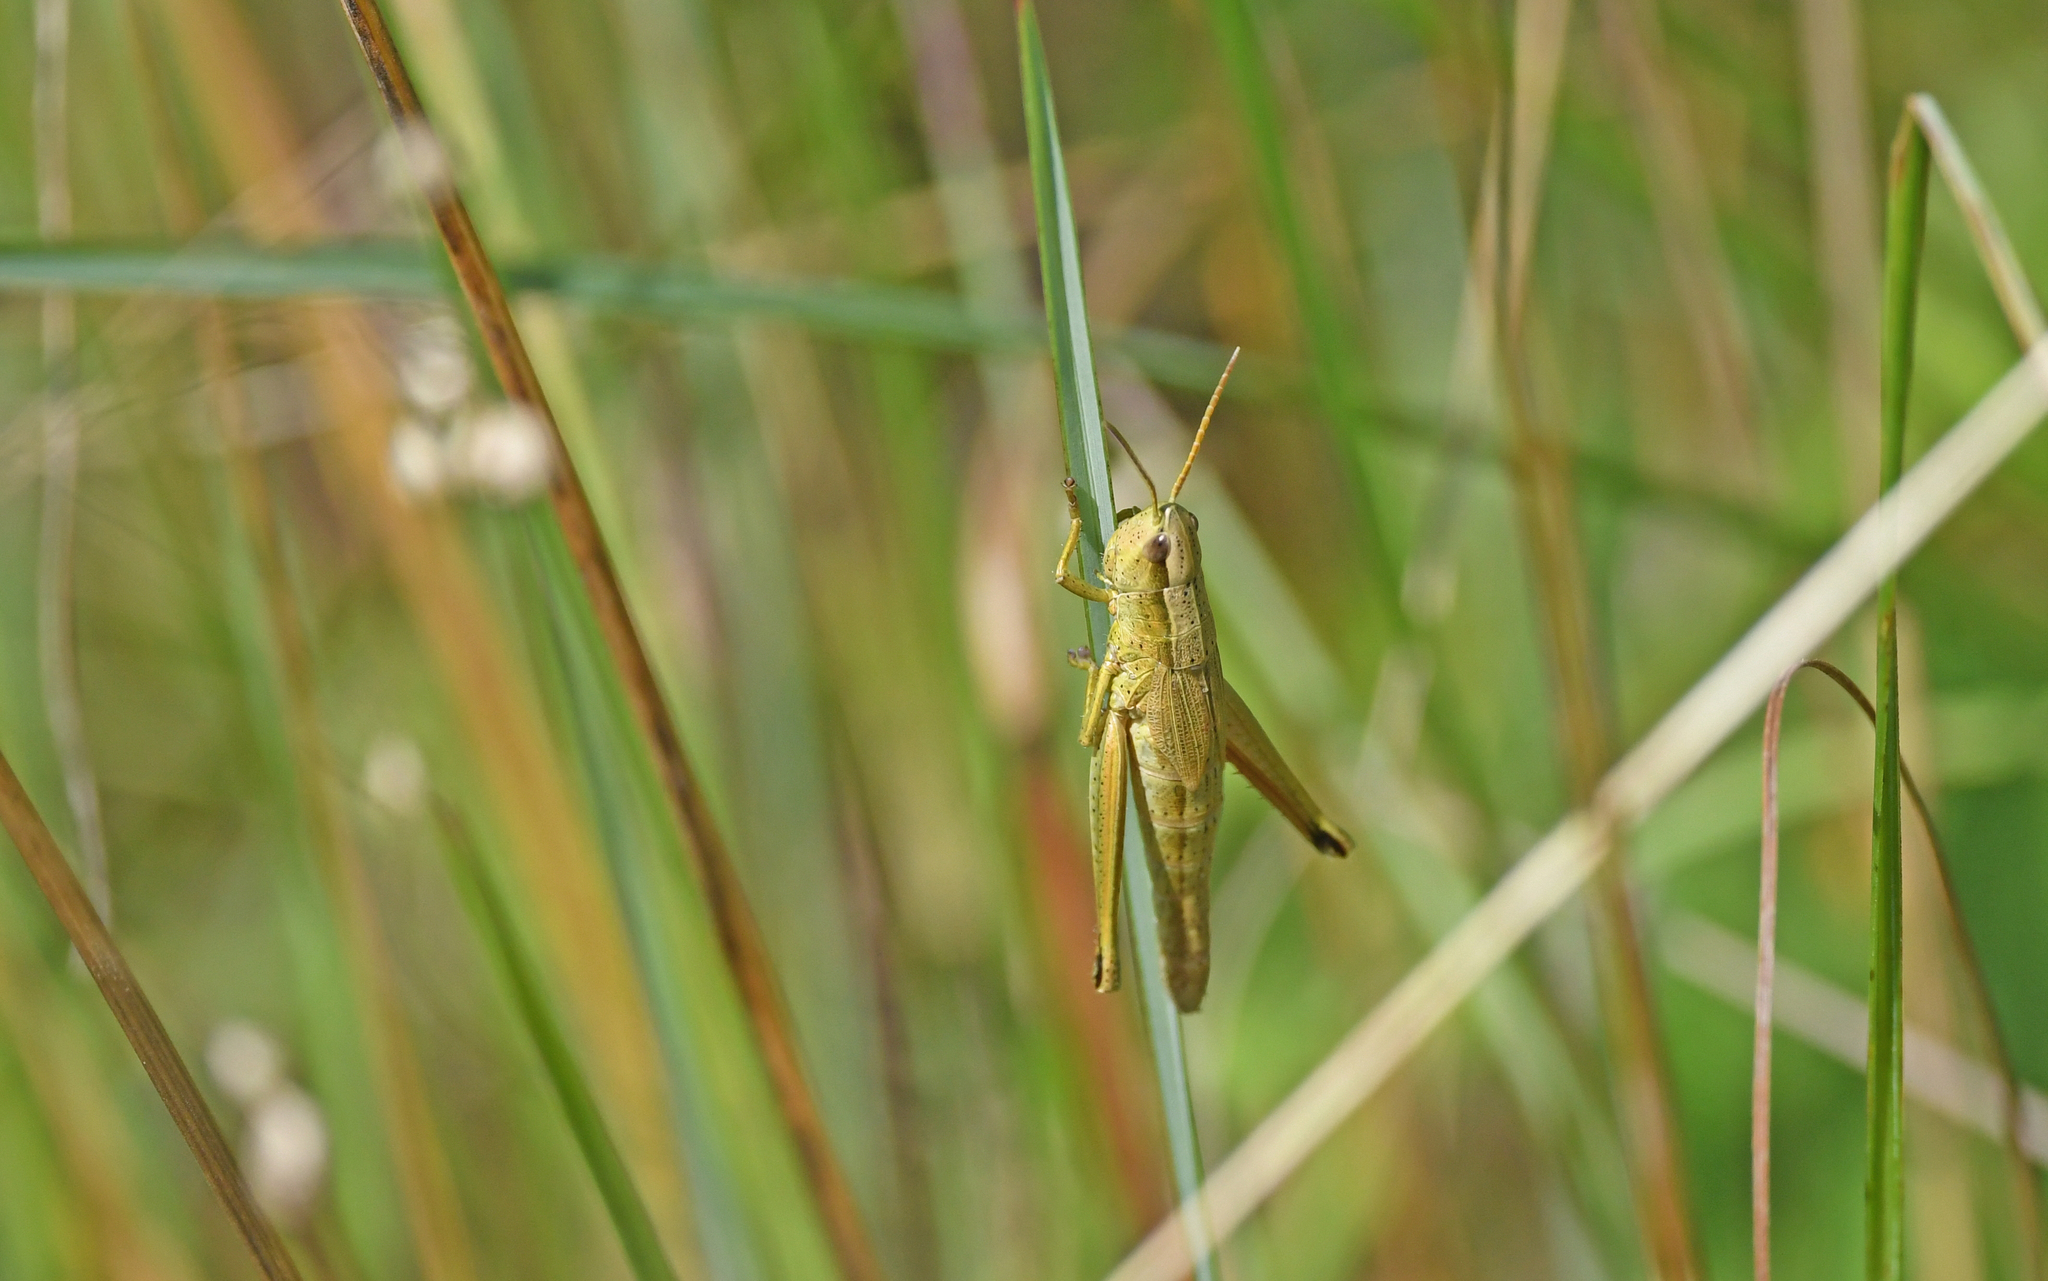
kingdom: Animalia
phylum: Arthropoda
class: Insecta
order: Orthoptera
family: Acrididae
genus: Chrysochraon
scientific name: Chrysochraon dispar
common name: Large gold grasshopper
